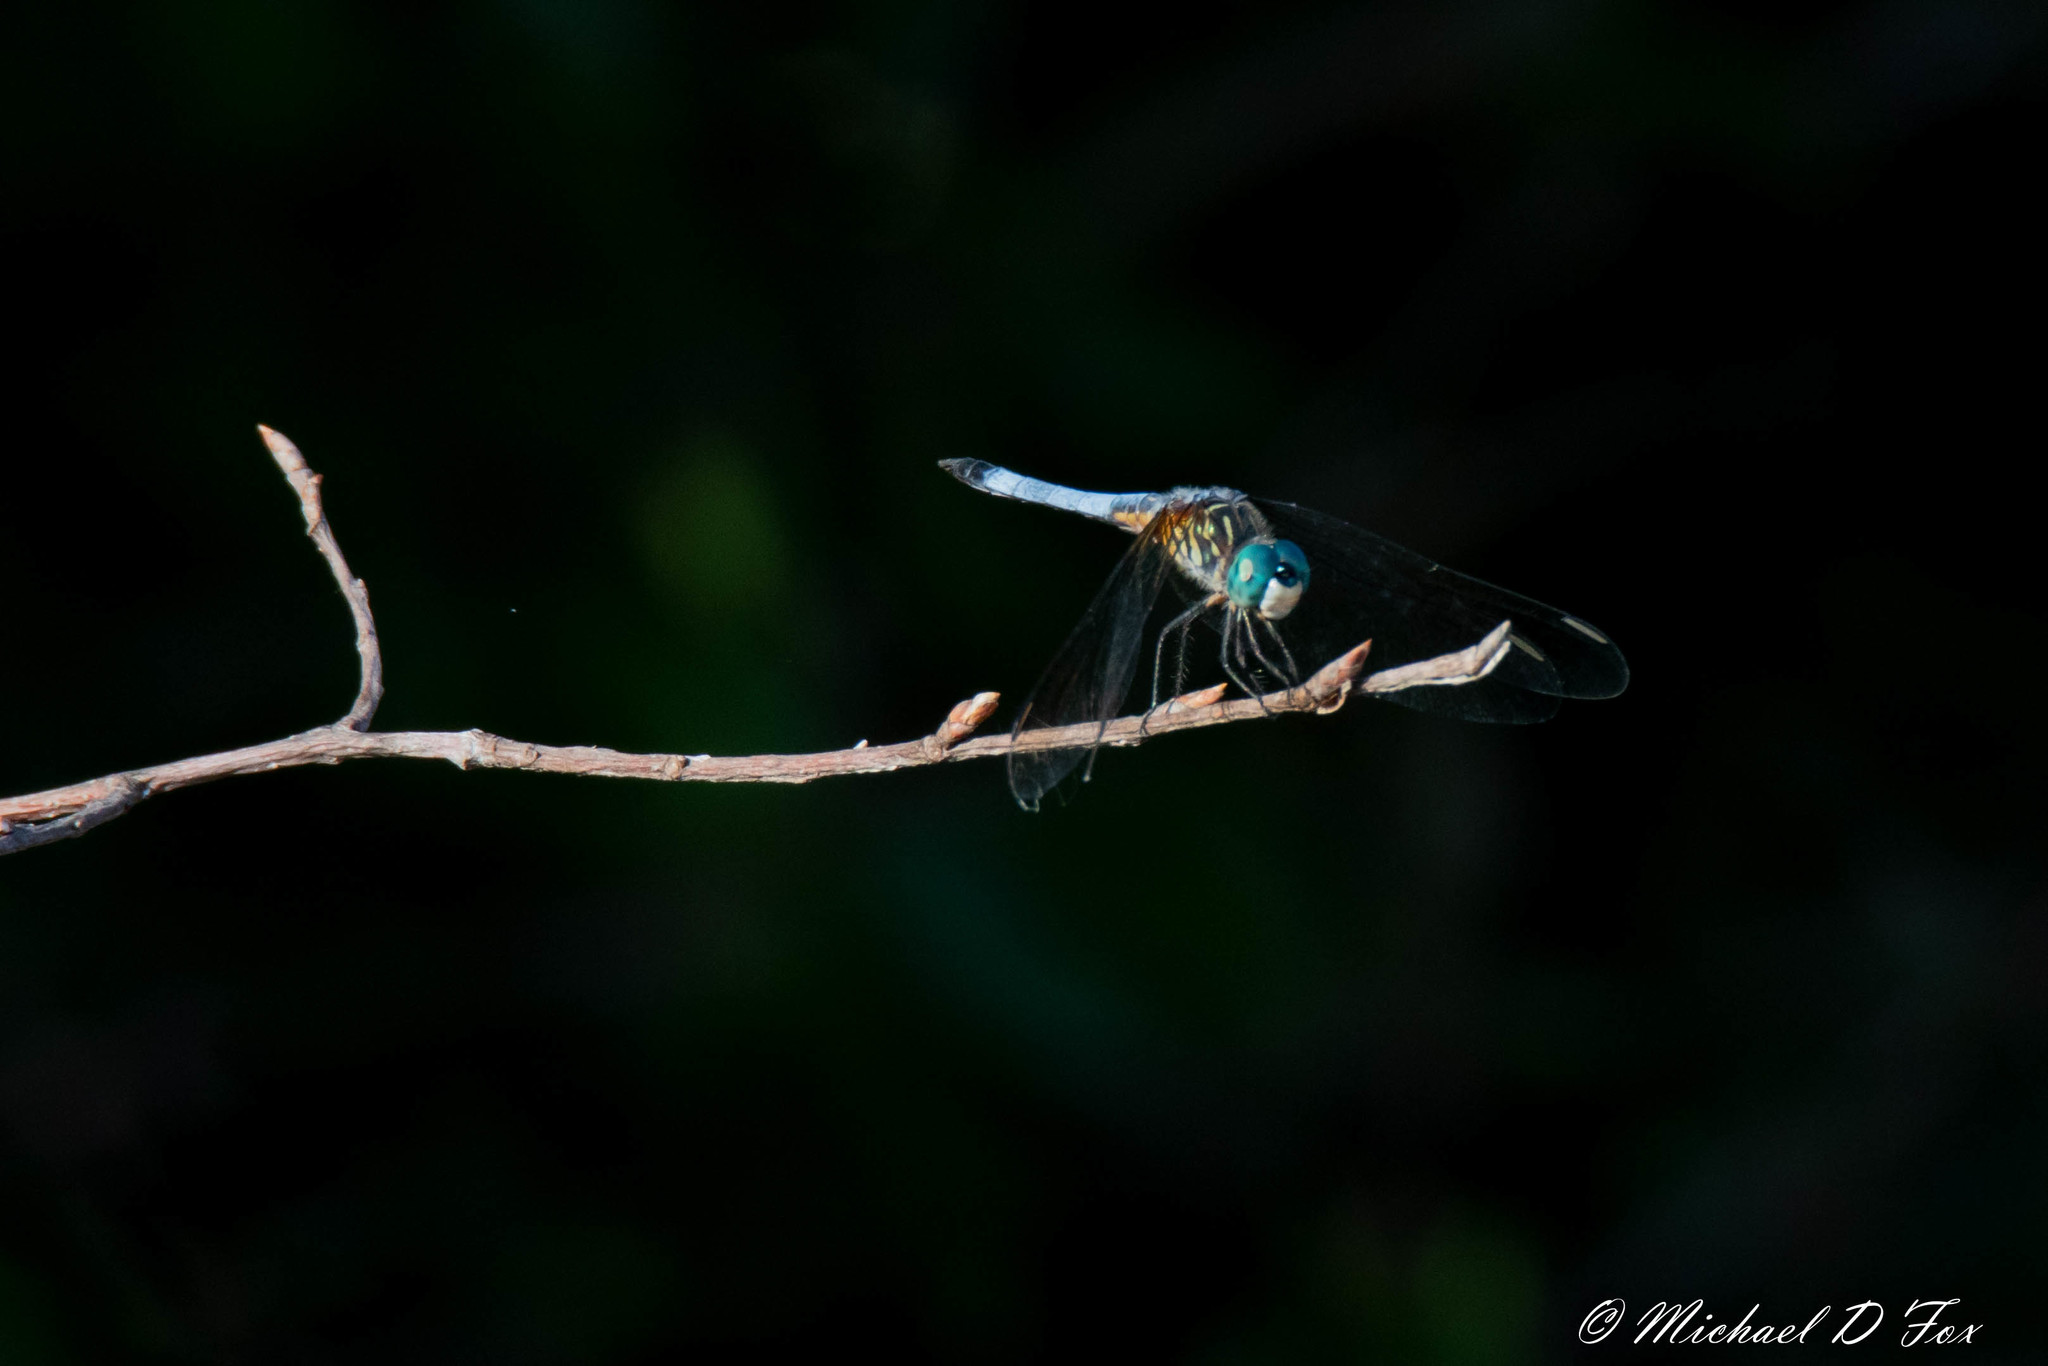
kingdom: Animalia
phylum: Arthropoda
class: Insecta
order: Odonata
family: Libellulidae
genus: Pachydiplax
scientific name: Pachydiplax longipennis
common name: Blue dasher
